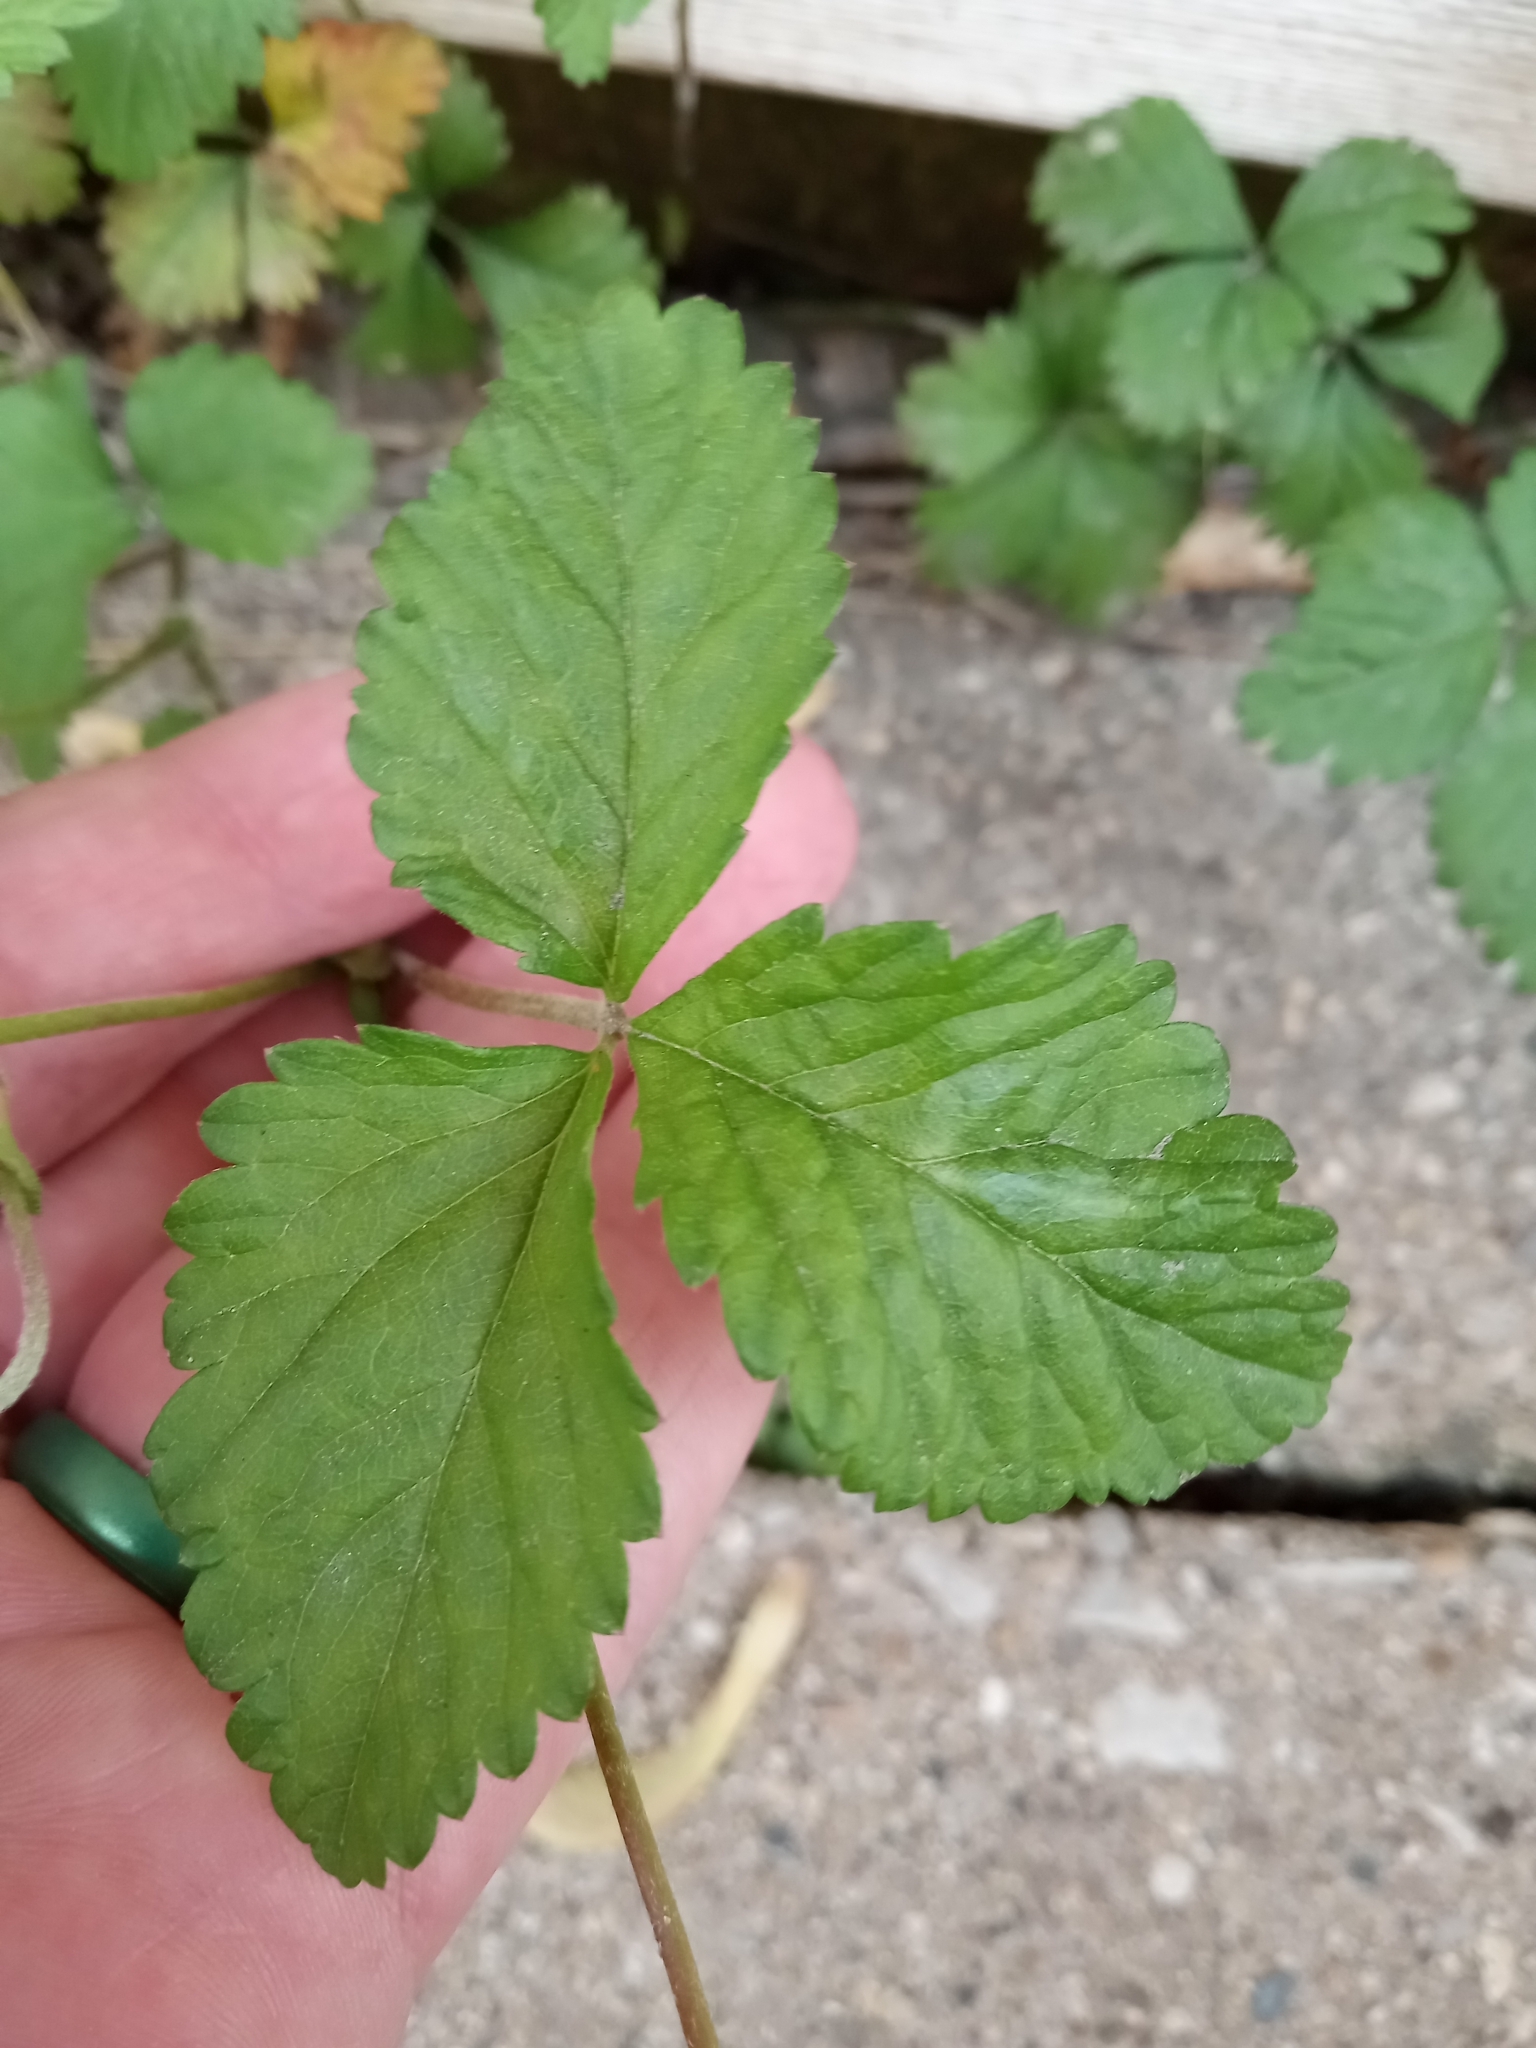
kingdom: Plantae
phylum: Tracheophyta
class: Magnoliopsida
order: Rosales
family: Rosaceae
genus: Potentilla
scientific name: Potentilla indica
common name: Yellow-flowered strawberry
